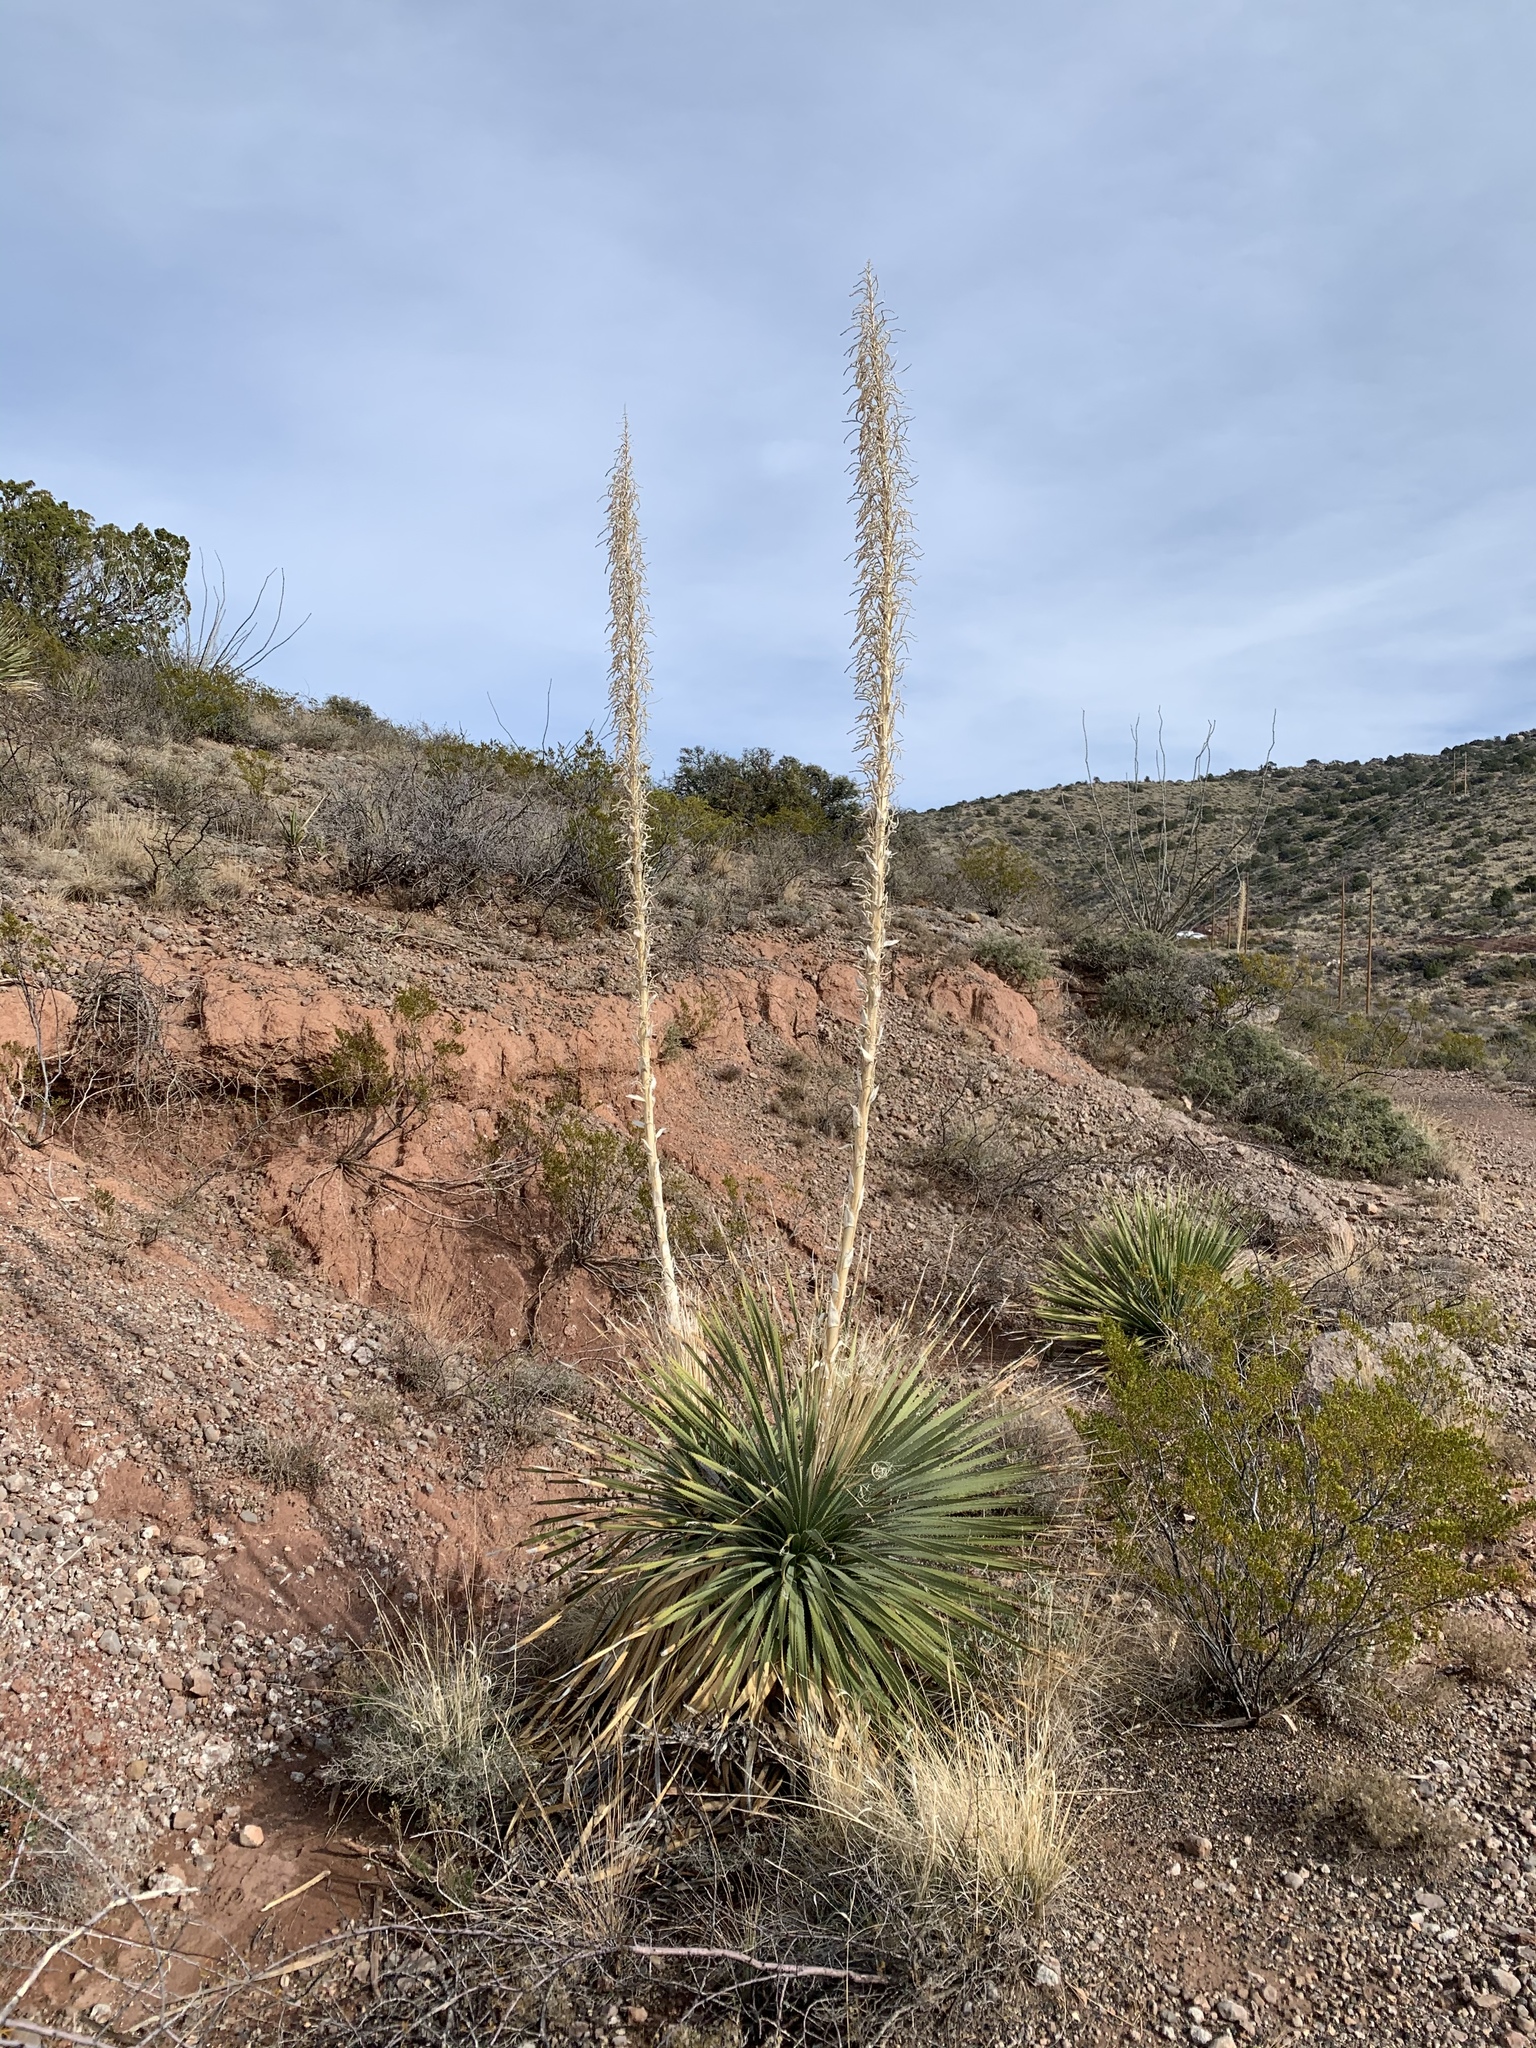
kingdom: Plantae
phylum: Tracheophyta
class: Liliopsida
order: Asparagales
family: Asparagaceae
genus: Dasylirion
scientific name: Dasylirion wheeleri
